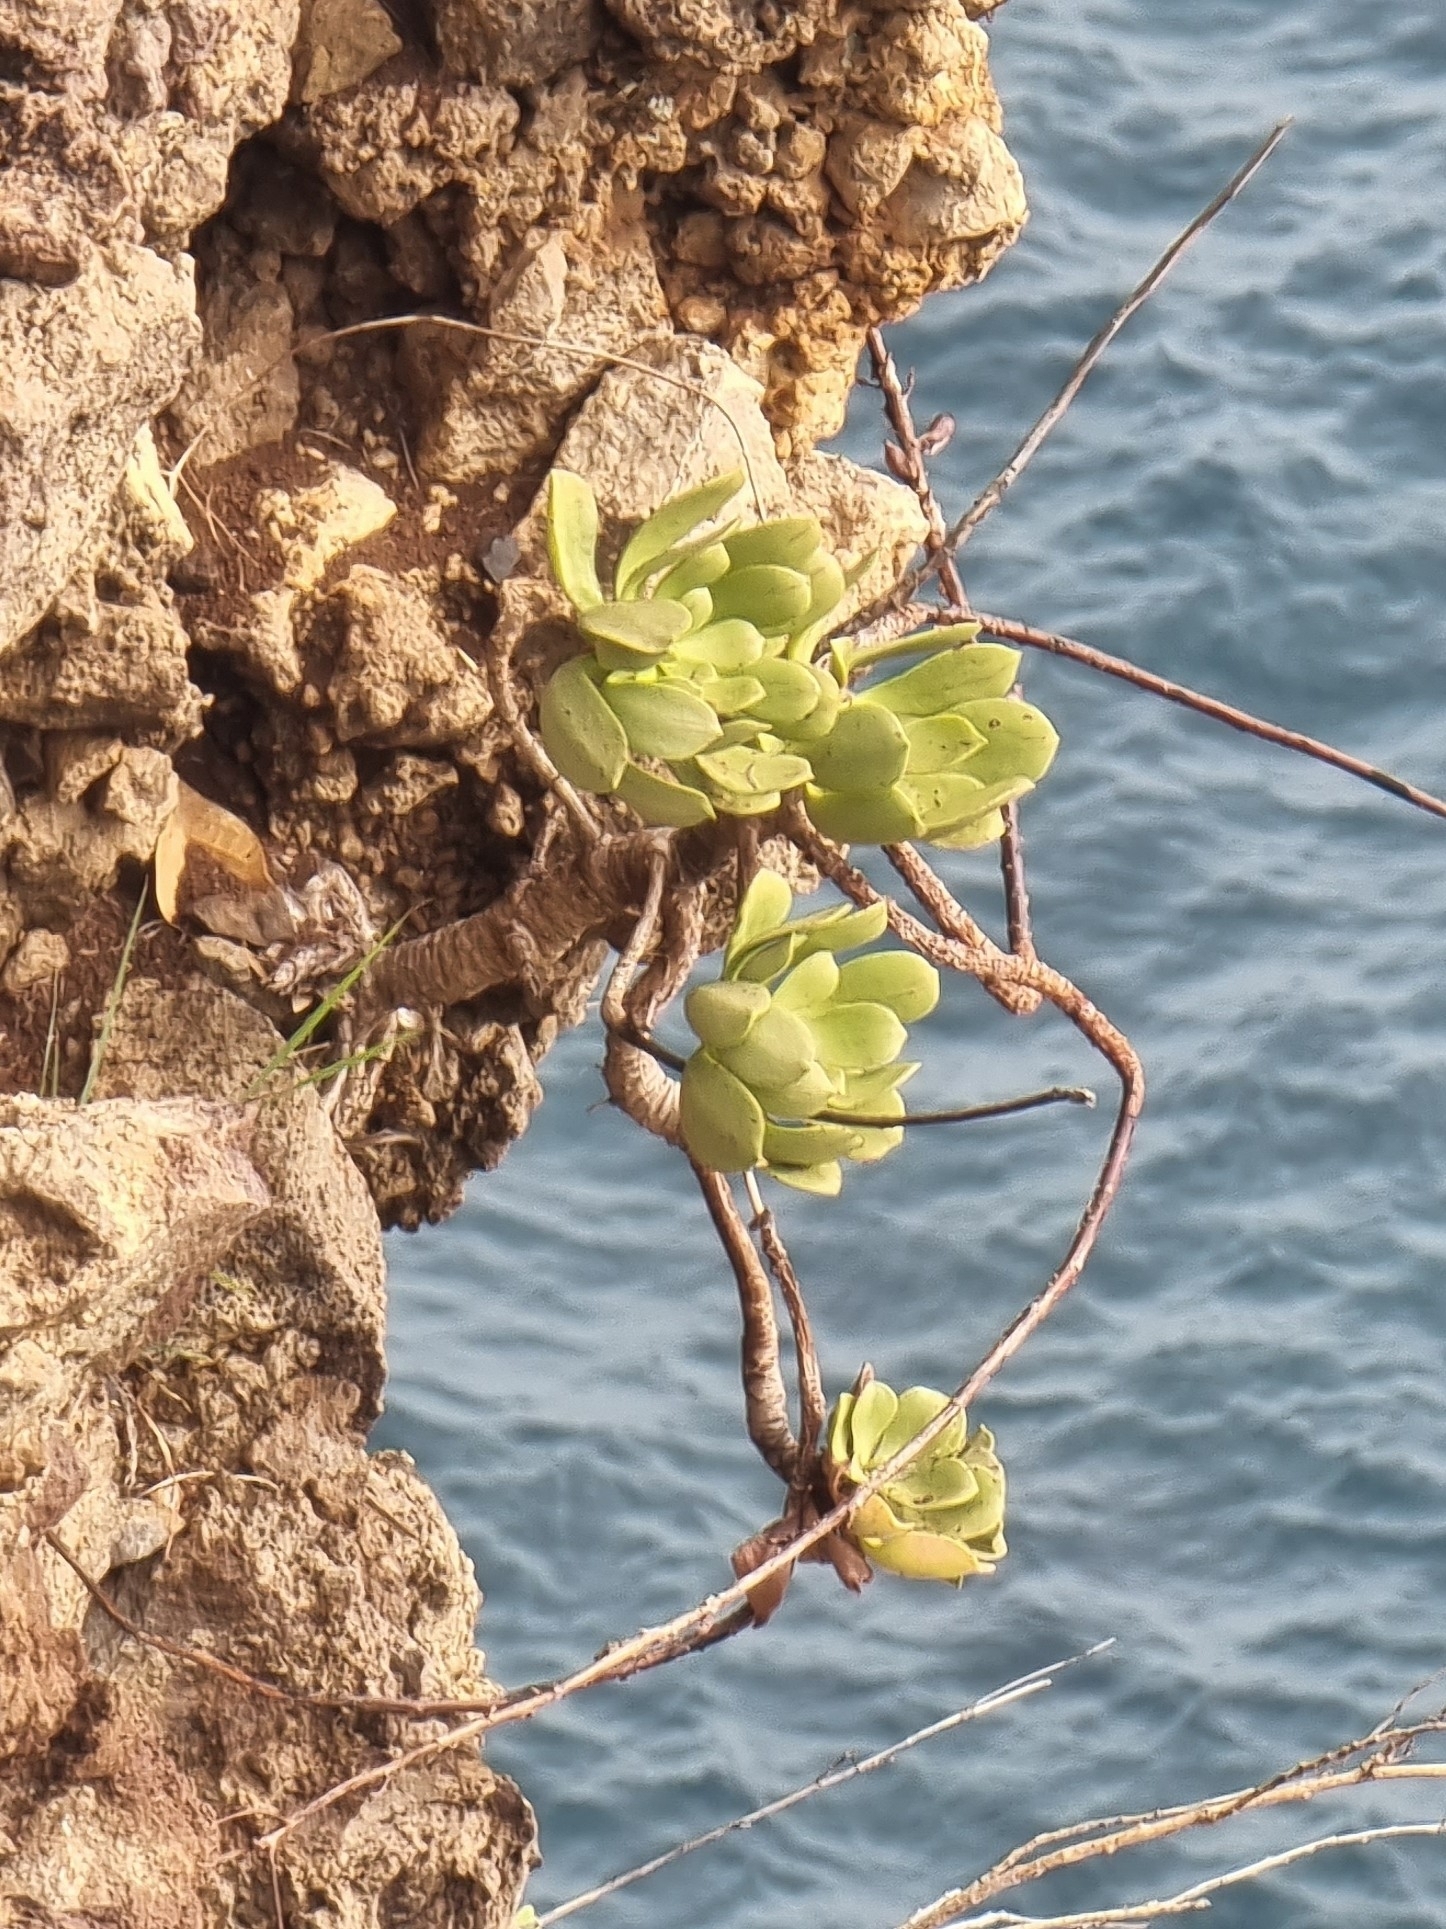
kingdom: Plantae
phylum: Tracheophyta
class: Magnoliopsida
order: Saxifragales
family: Crassulaceae
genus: Aeonium
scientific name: Aeonium glutinosum
